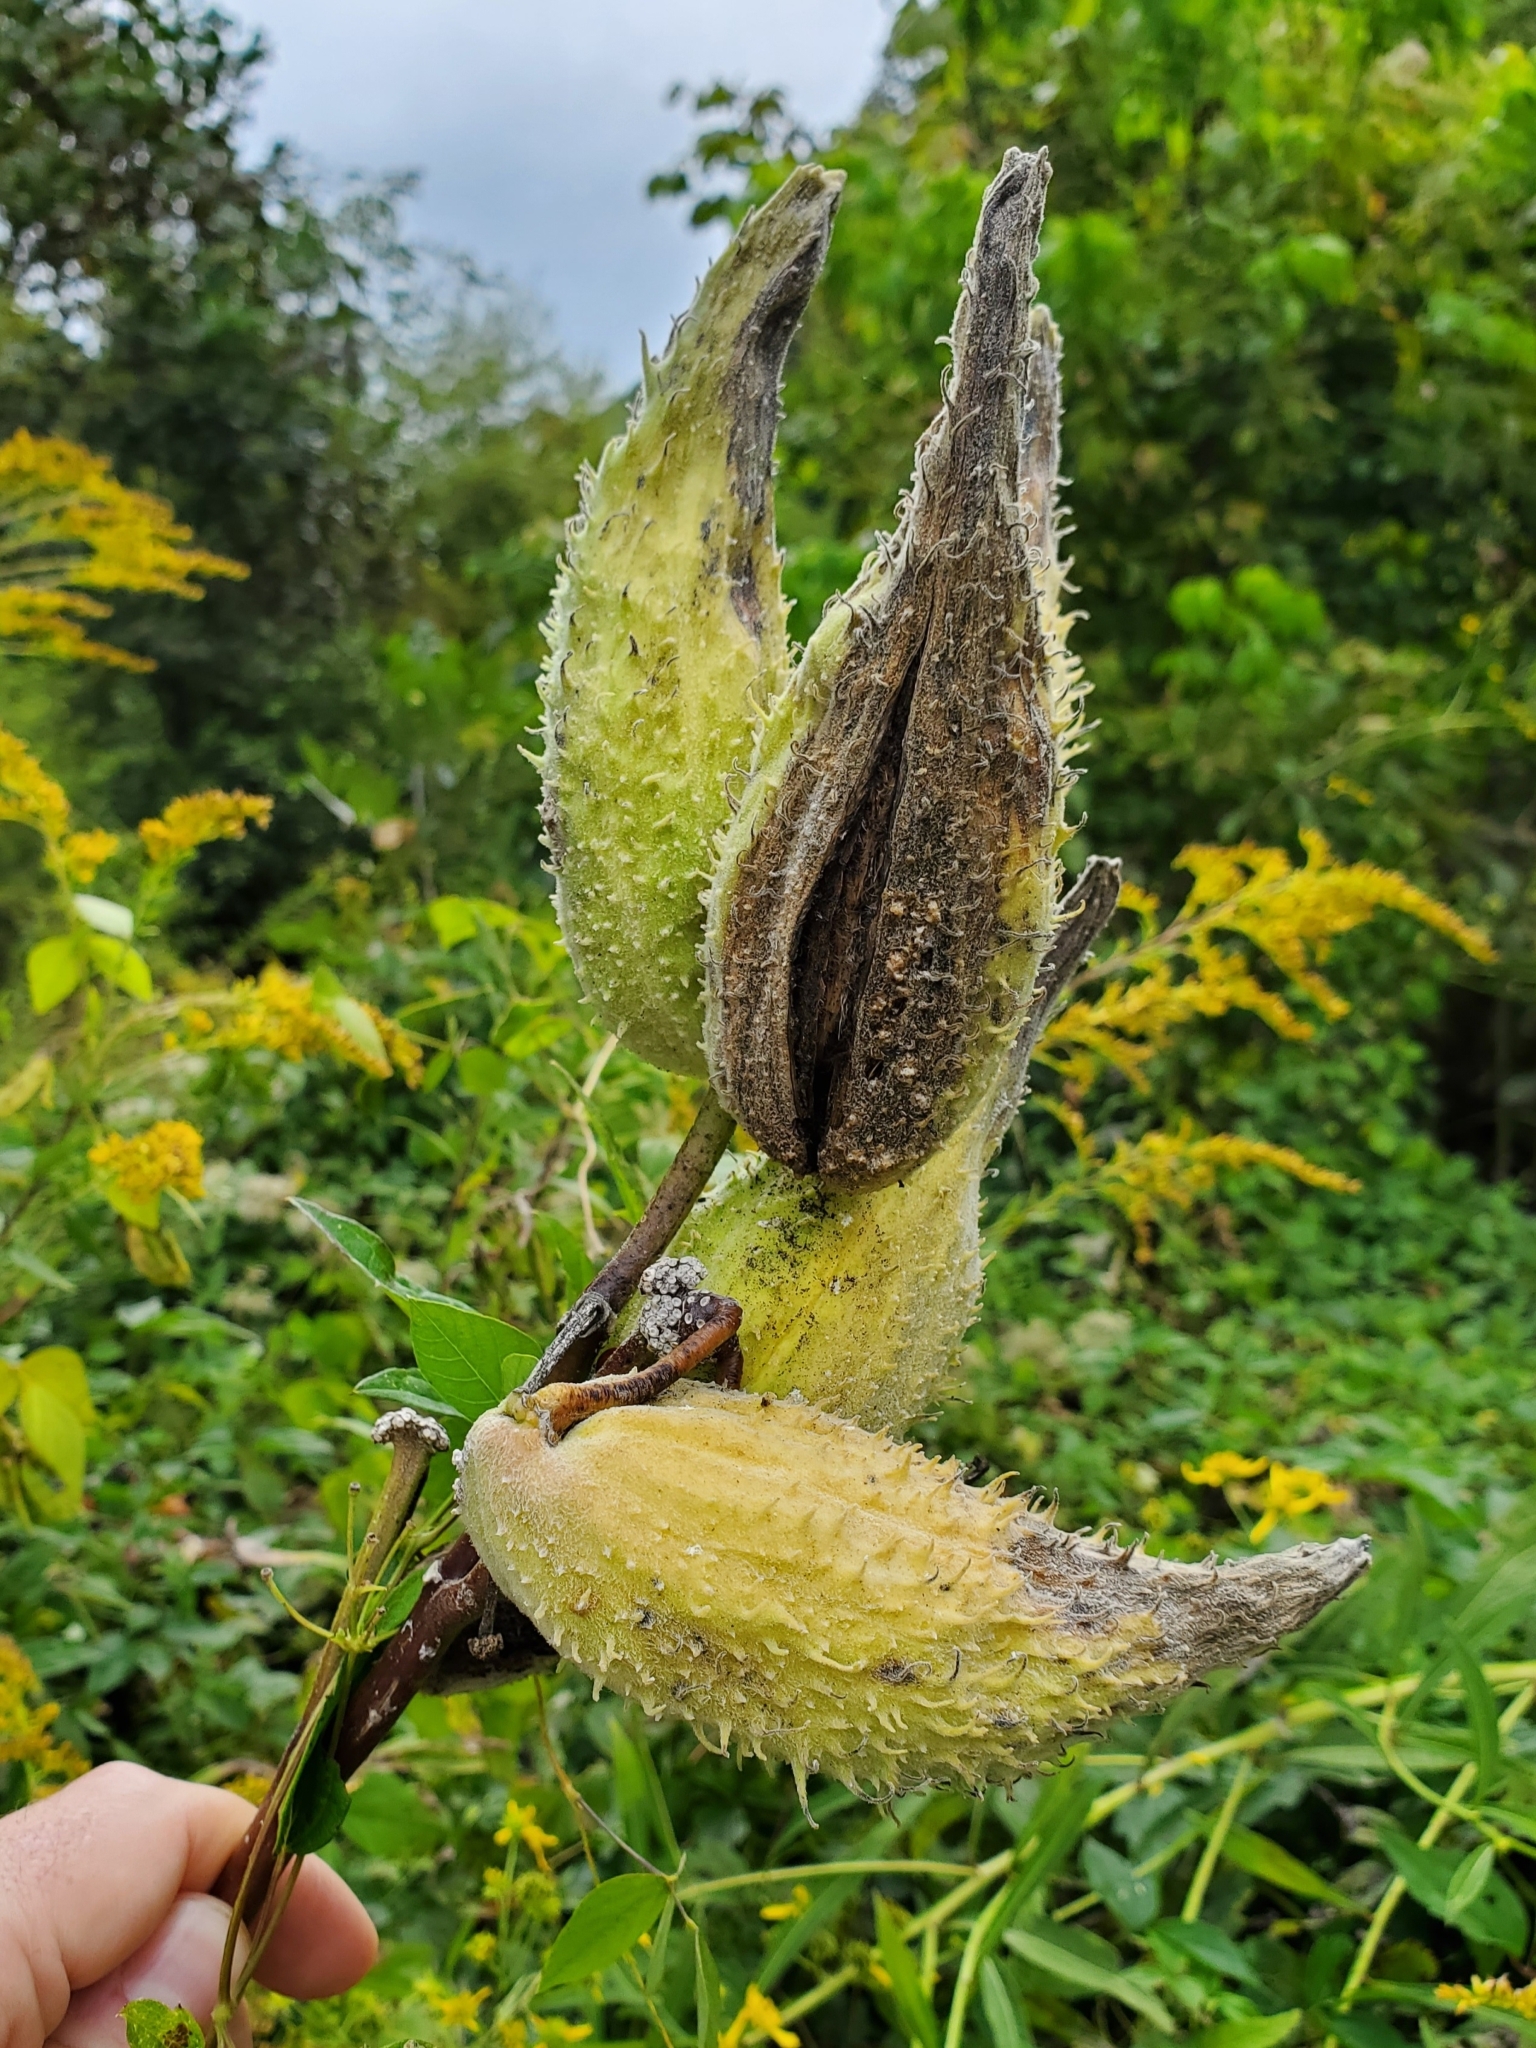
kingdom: Plantae
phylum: Tracheophyta
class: Magnoliopsida
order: Gentianales
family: Apocynaceae
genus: Asclepias
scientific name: Asclepias syriaca
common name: Common milkweed
